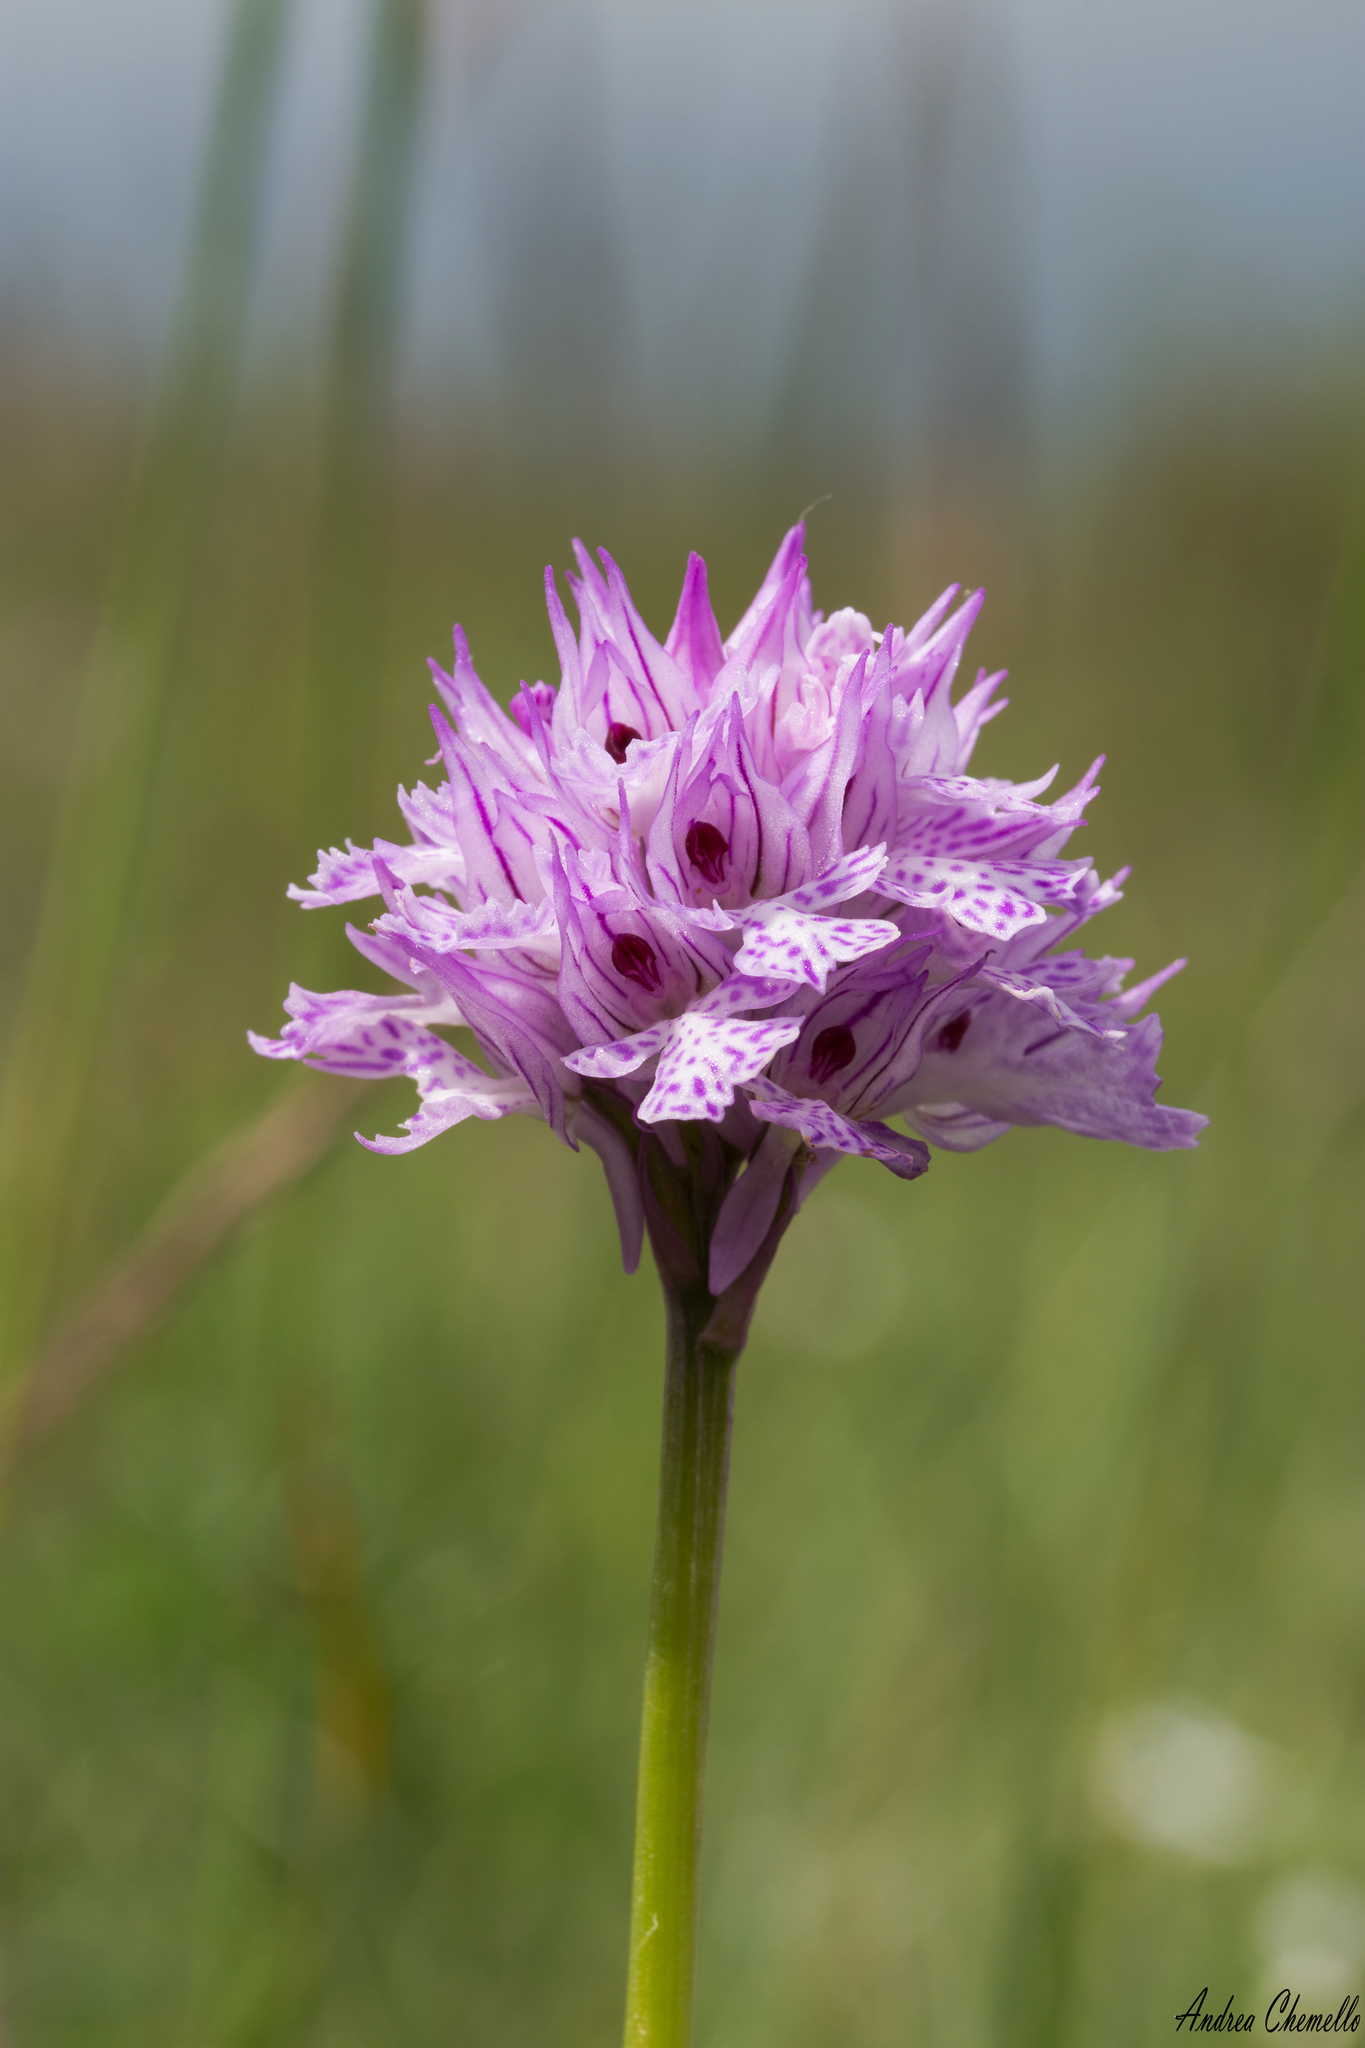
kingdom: Plantae
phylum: Tracheophyta
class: Liliopsida
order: Asparagales
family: Orchidaceae
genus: Neotinea
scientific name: Neotinea tridentata
